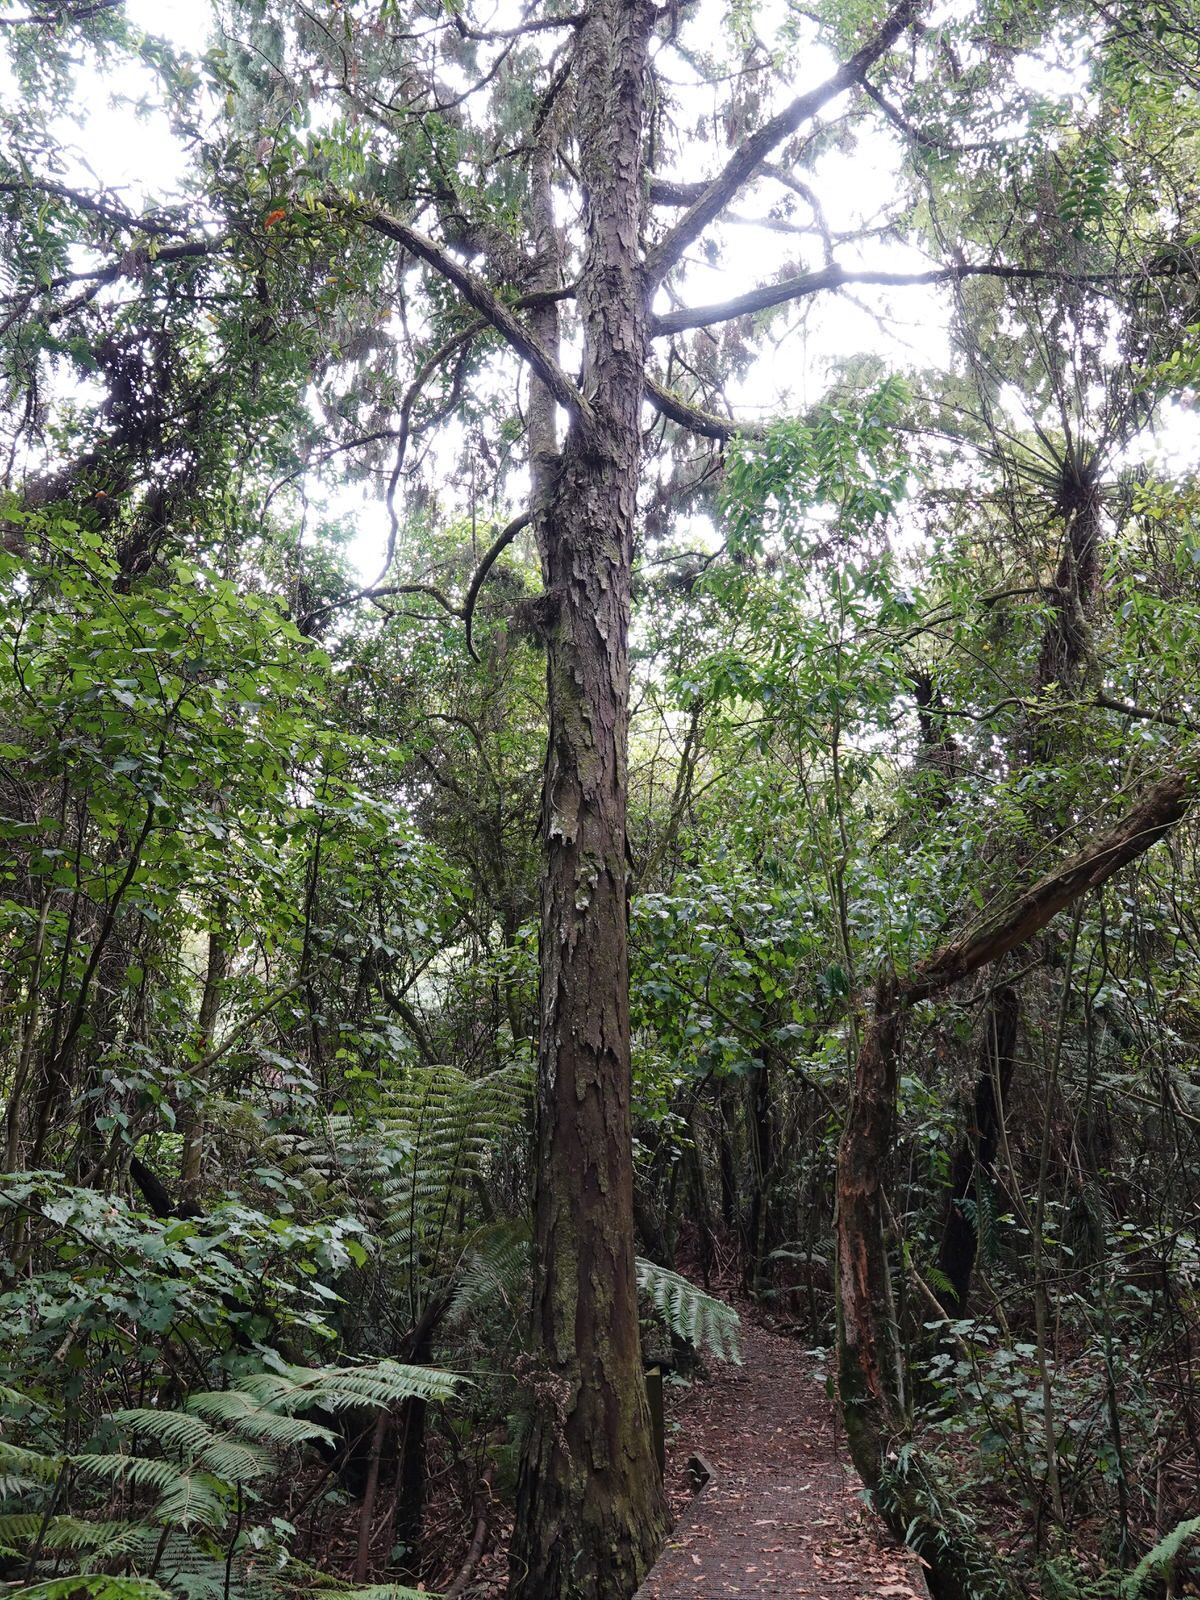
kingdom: Plantae
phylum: Tracheophyta
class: Pinopsida
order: Pinales
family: Podocarpaceae
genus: Dacrydium
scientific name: Dacrydium cupressinum
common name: Red pine
